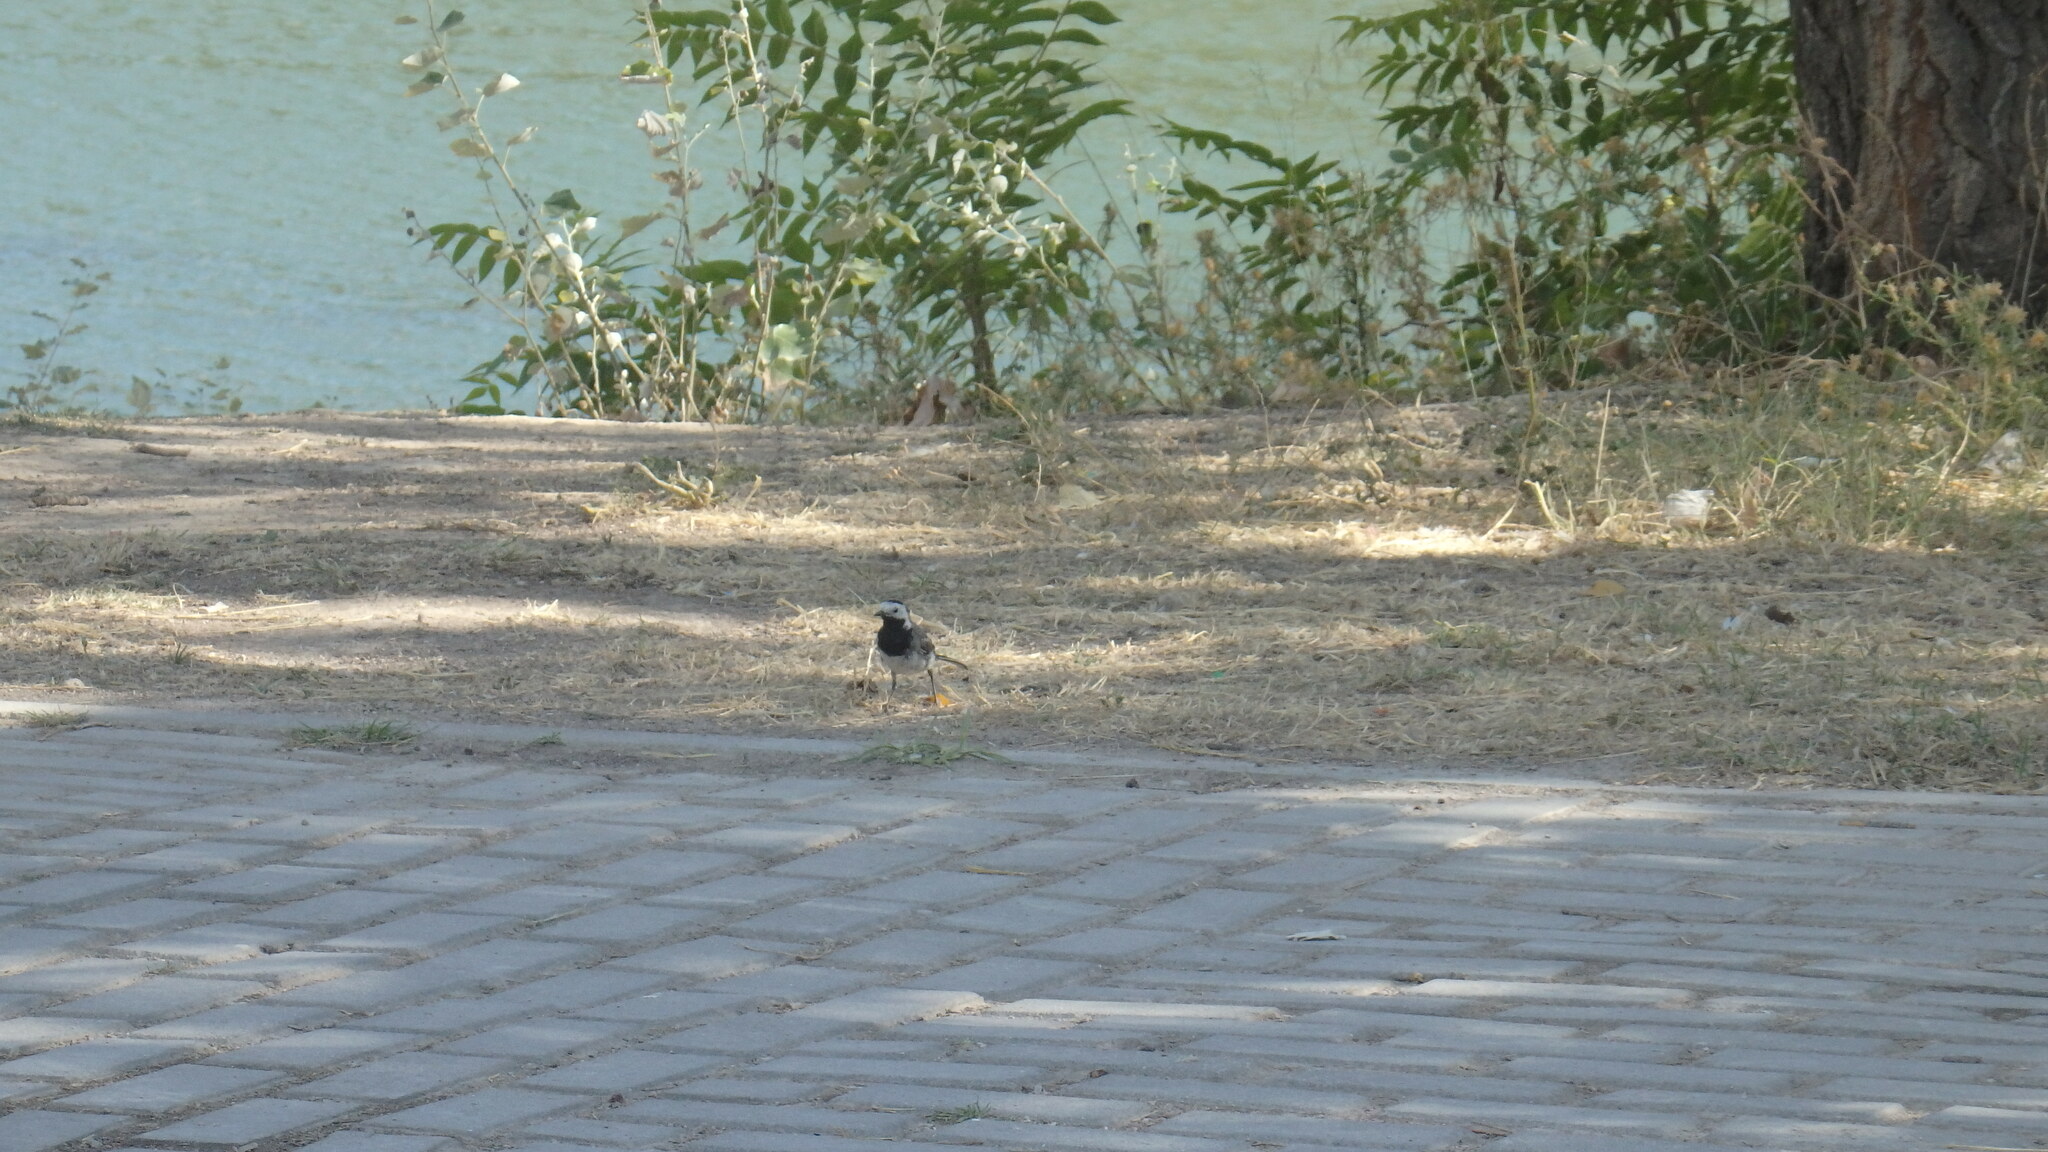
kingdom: Animalia
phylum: Chordata
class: Aves
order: Passeriformes
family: Motacillidae
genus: Motacilla
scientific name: Motacilla alba
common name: White wagtail
